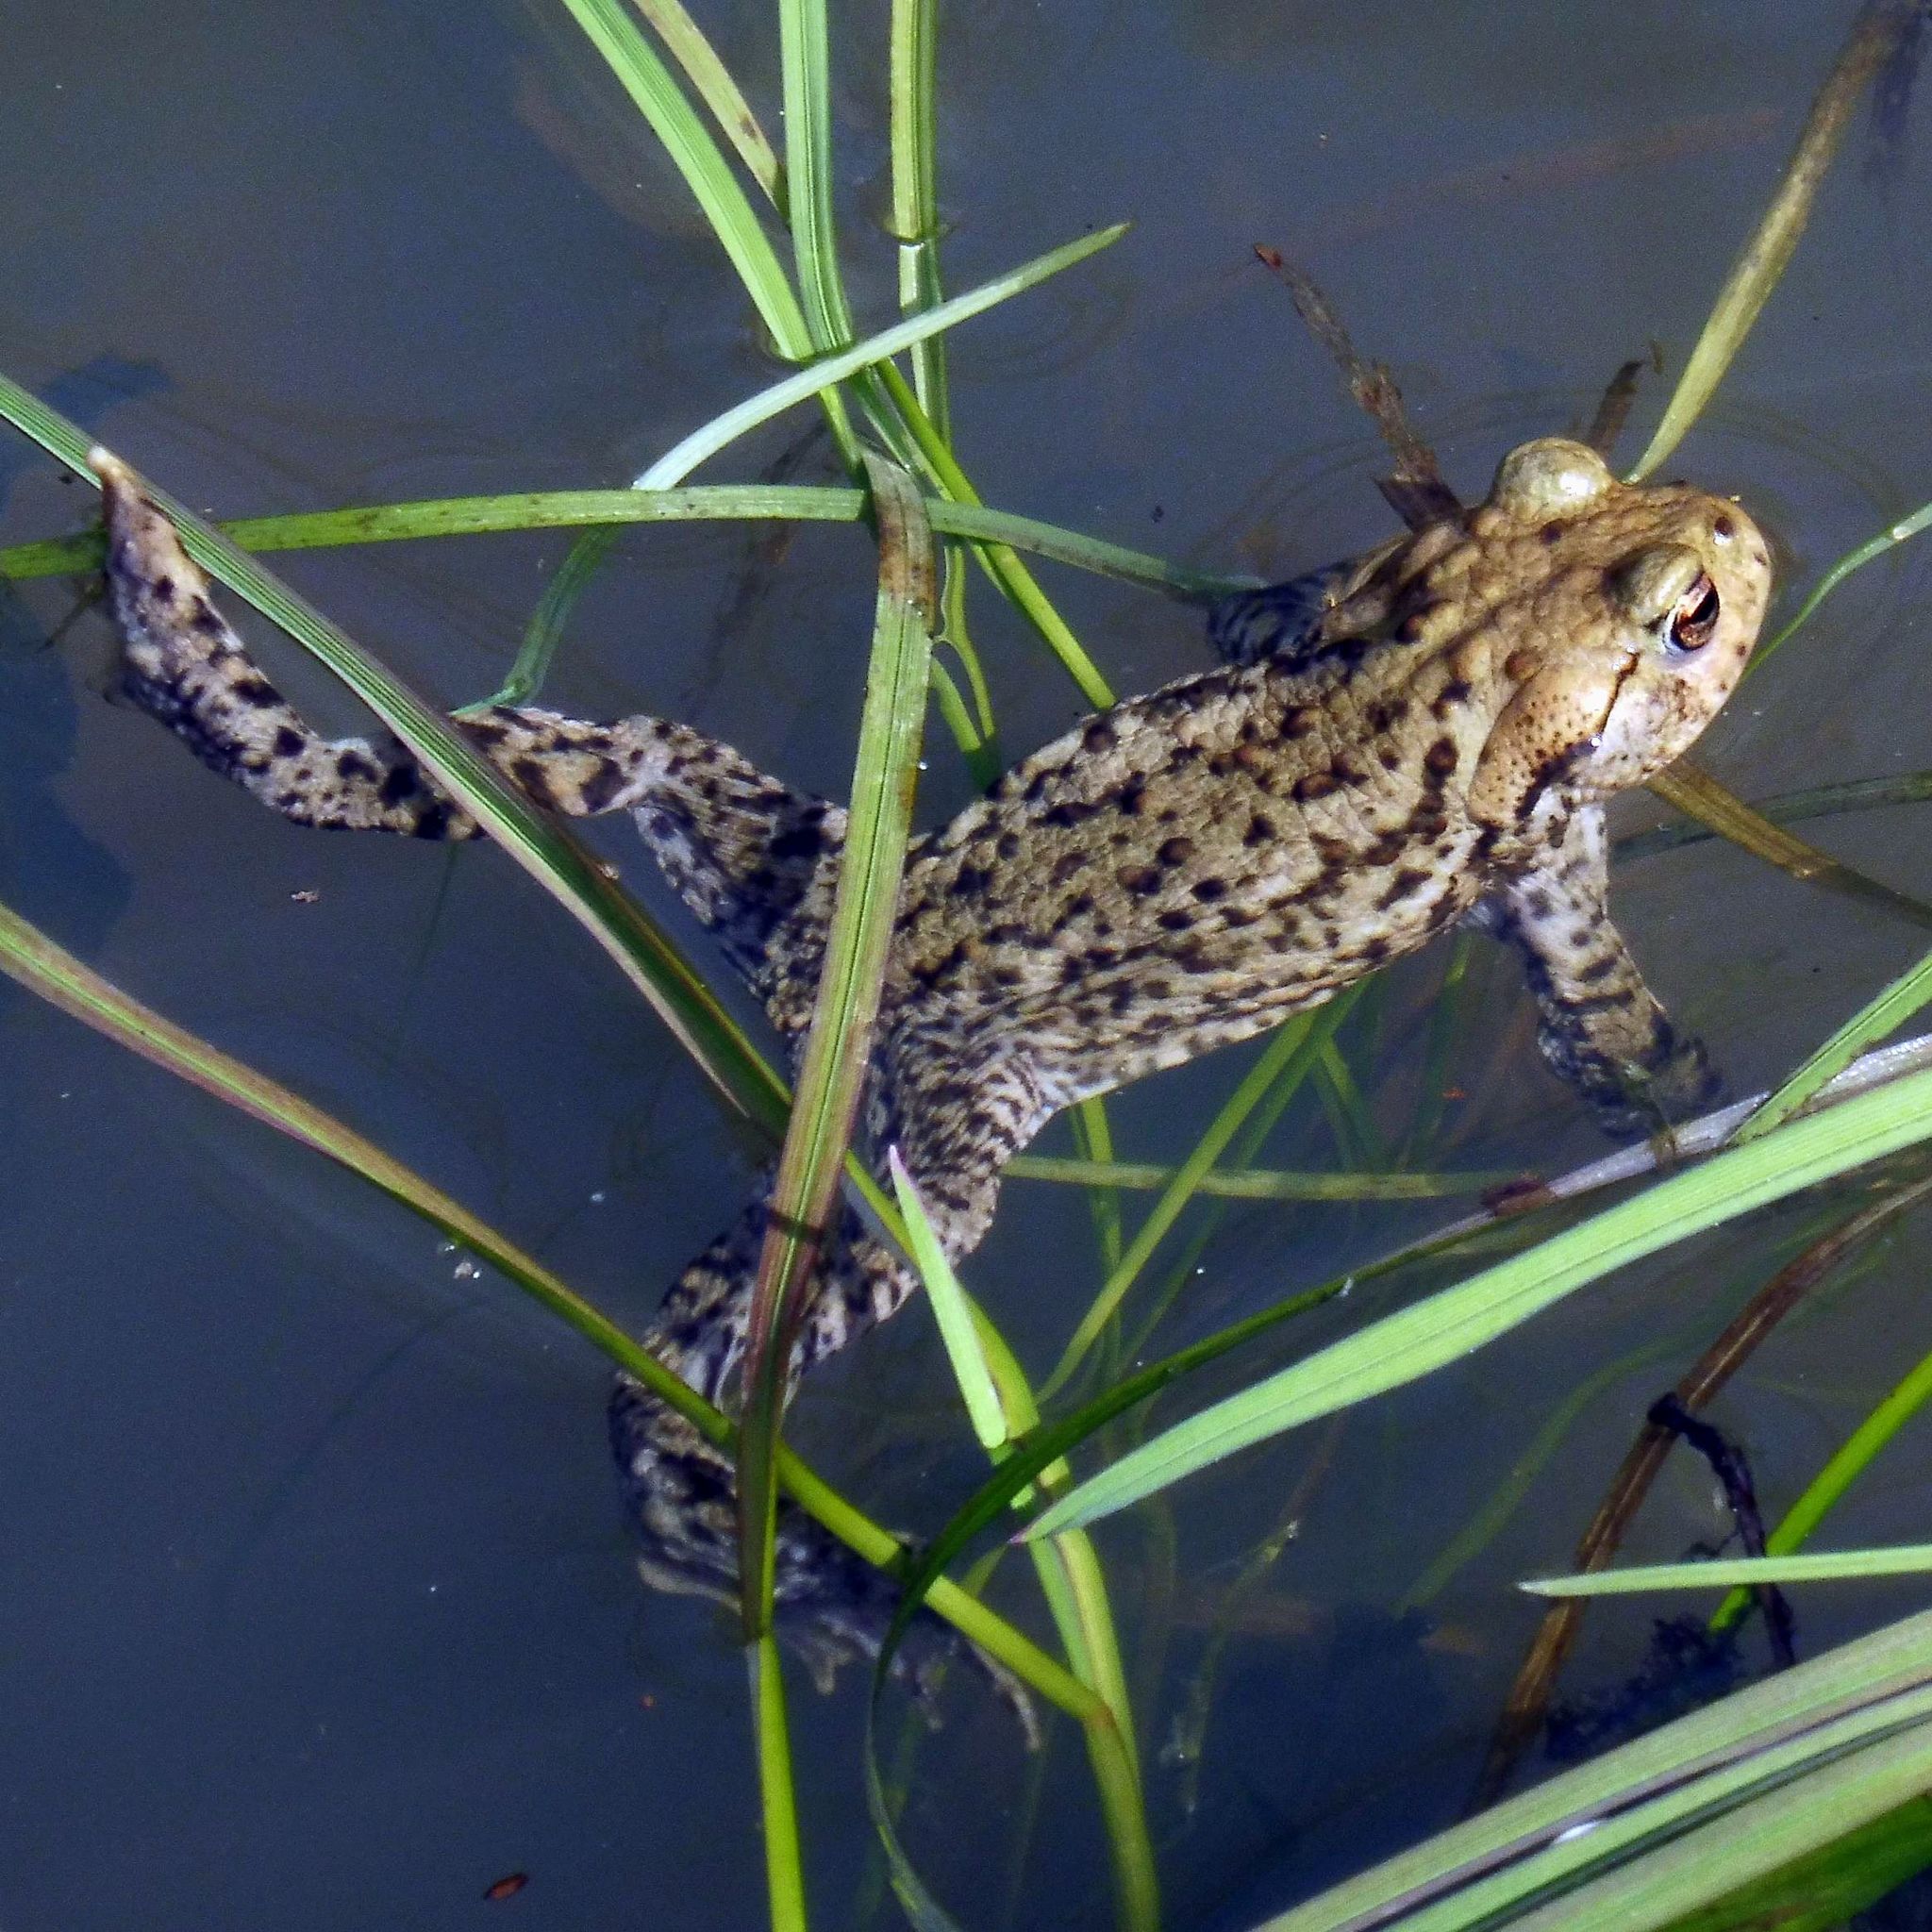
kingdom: Animalia
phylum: Chordata
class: Amphibia
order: Anura
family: Bufonidae
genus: Bufo
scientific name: Bufo bufo
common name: Common toad
